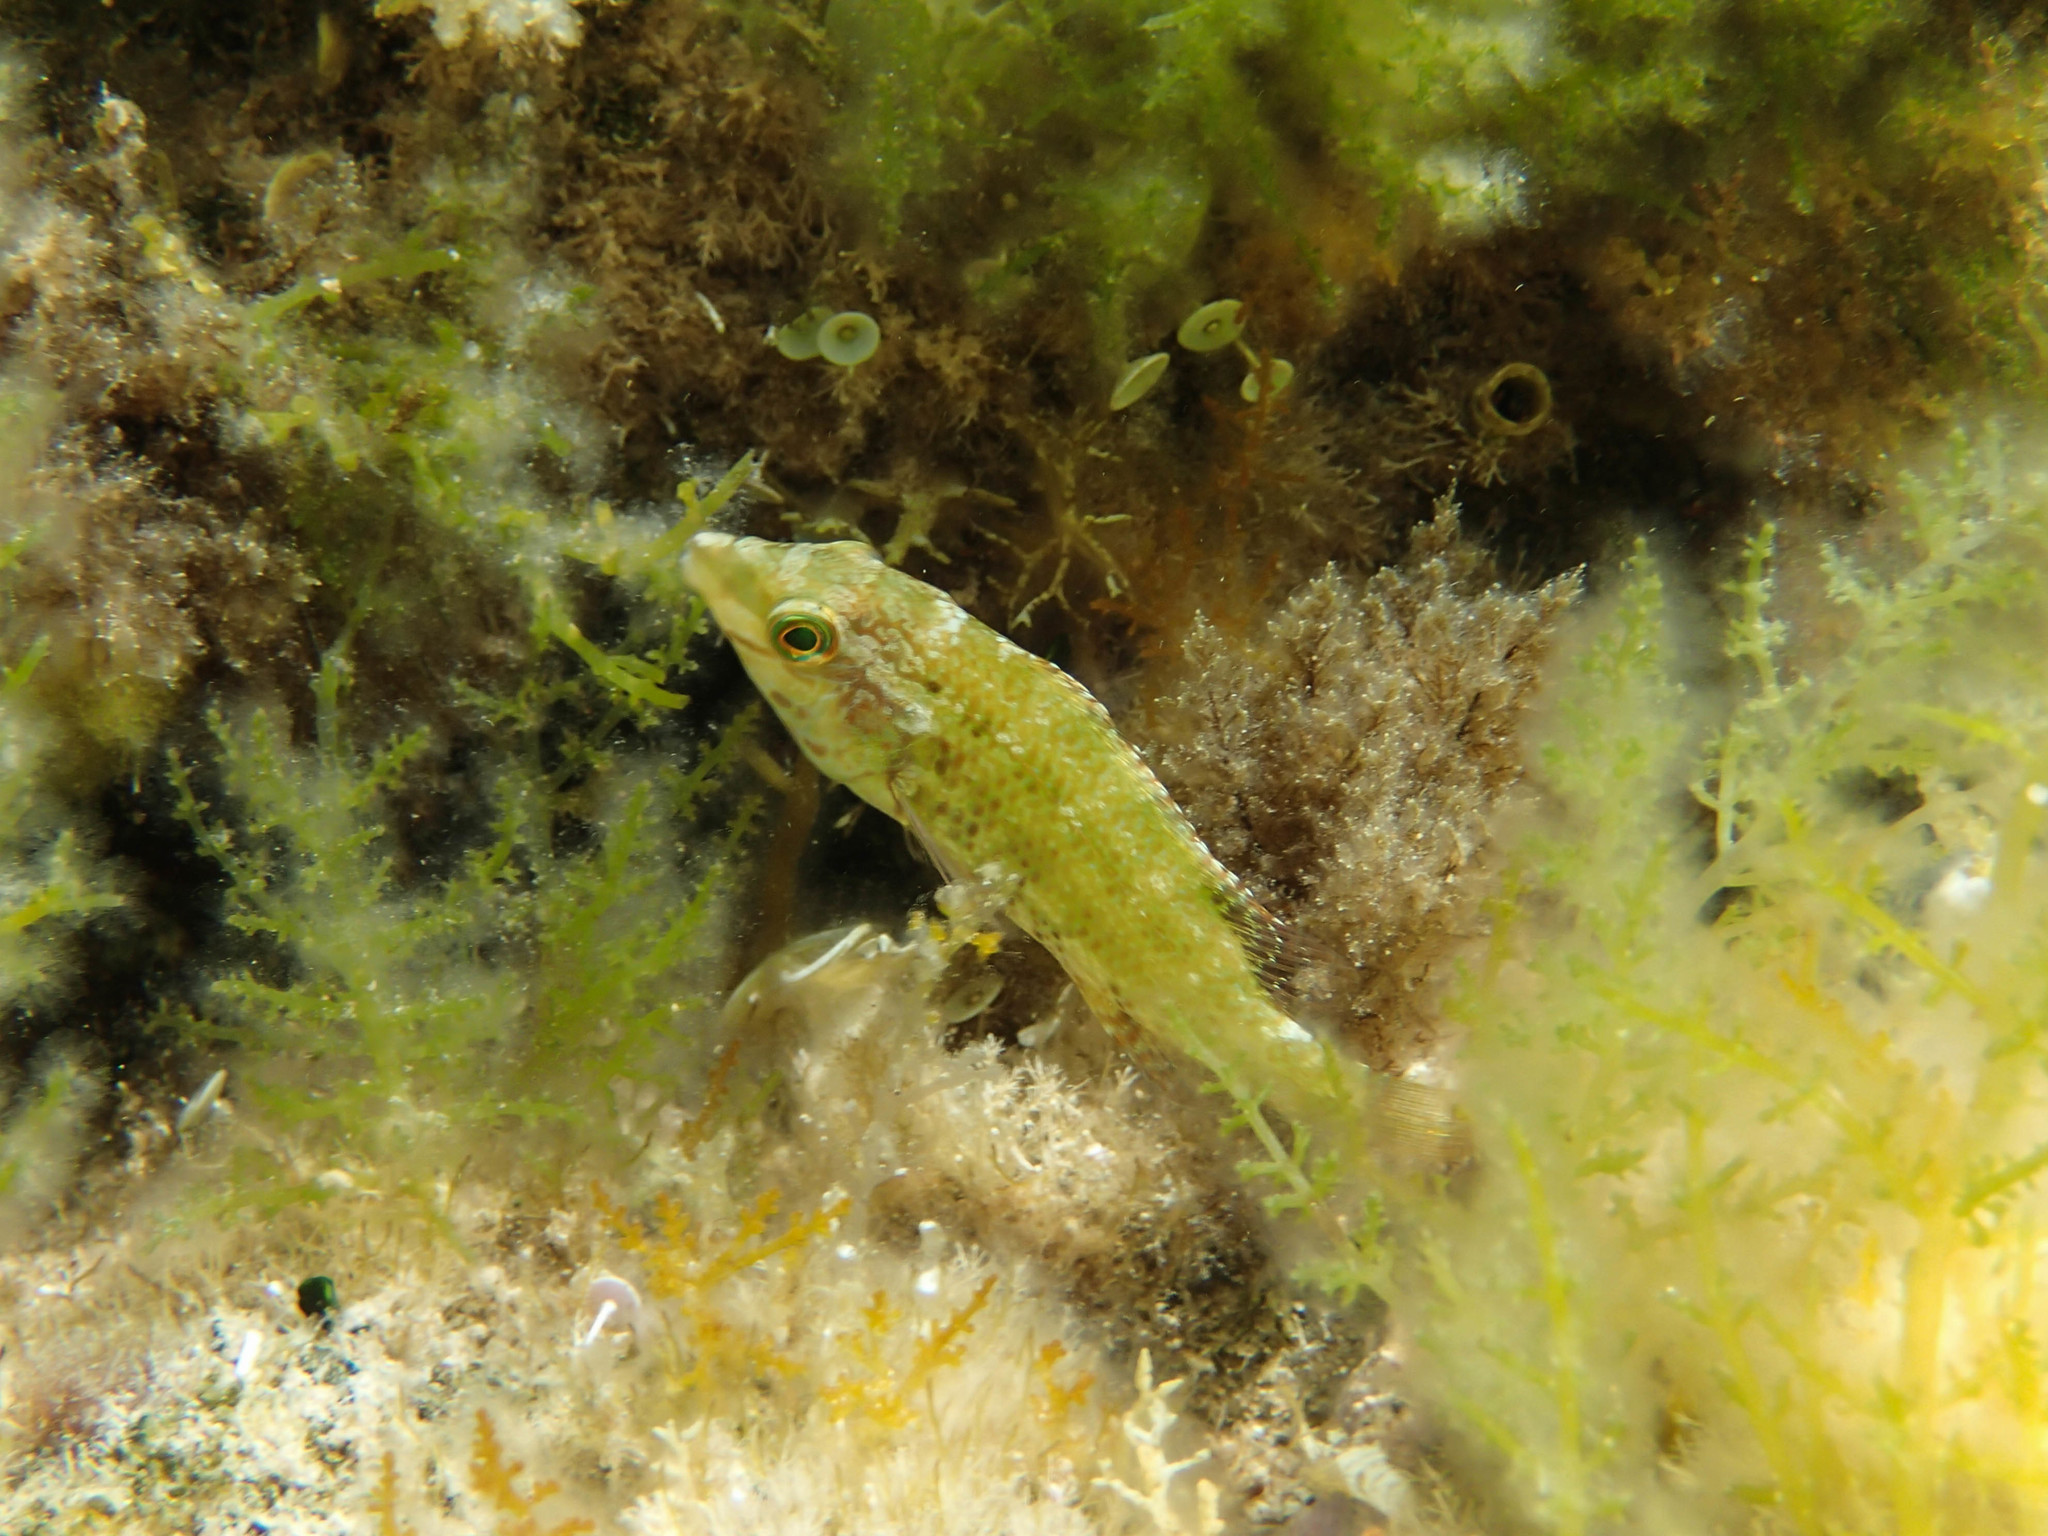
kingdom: Animalia
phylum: Chordata
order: Perciformes
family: Labridae
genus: Symphodus
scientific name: Symphodus roissali
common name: Five-spotted wrasse
